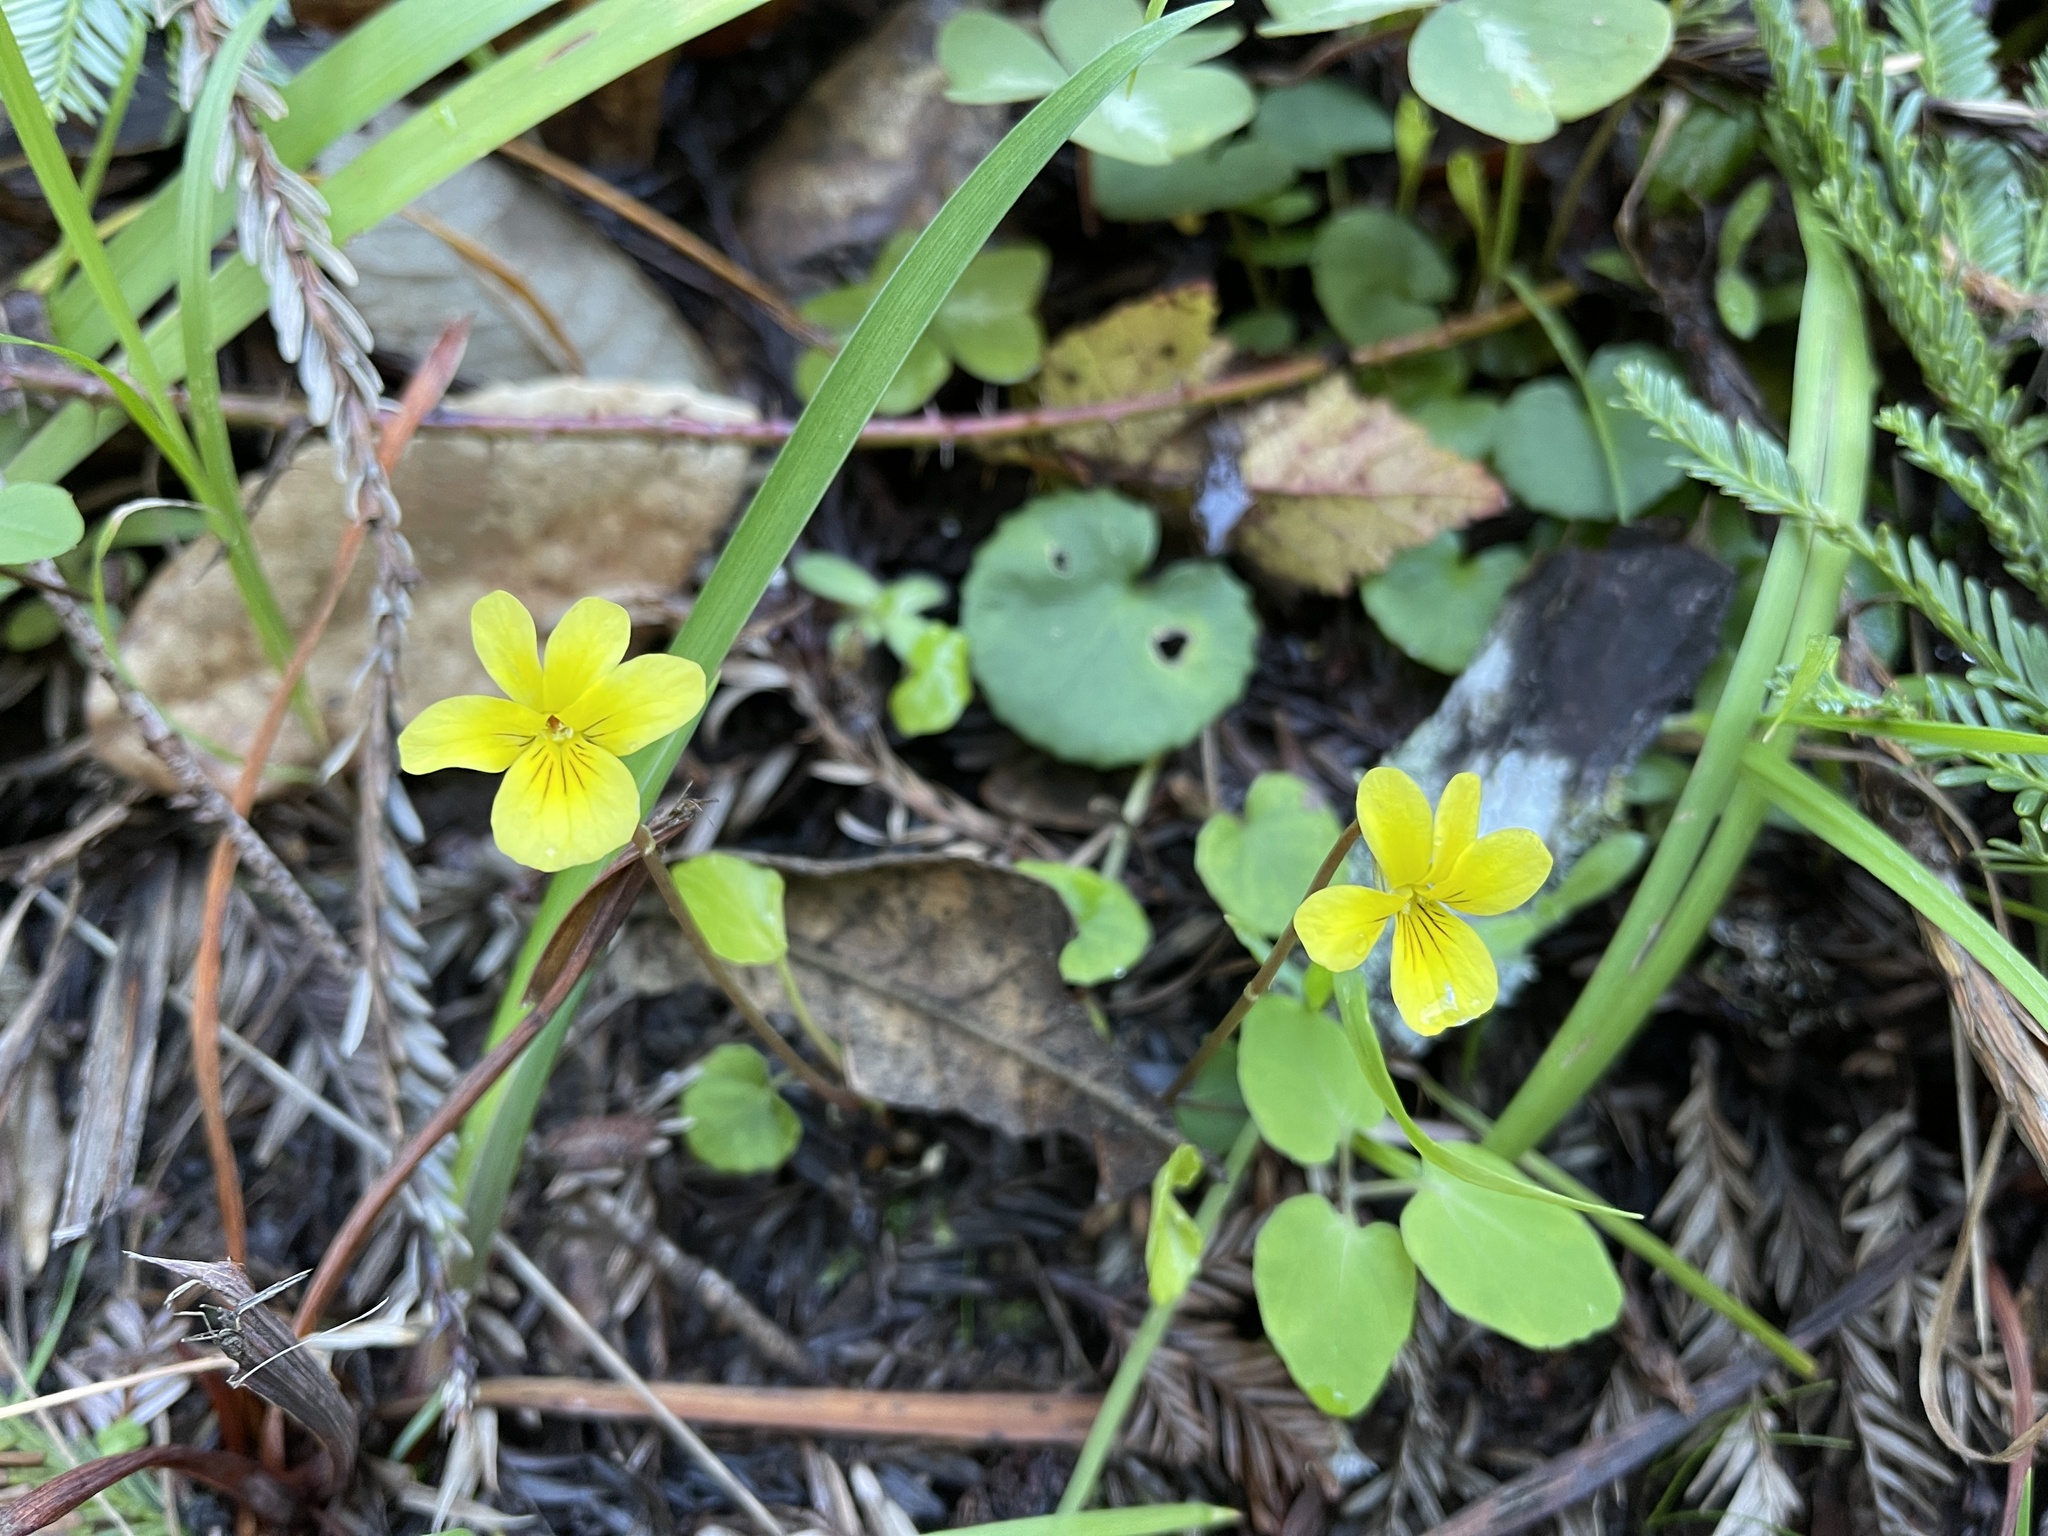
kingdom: Plantae
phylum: Tracheophyta
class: Magnoliopsida
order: Malpighiales
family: Violaceae
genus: Viola
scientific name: Viola sempervirens
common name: Evergreen violet
